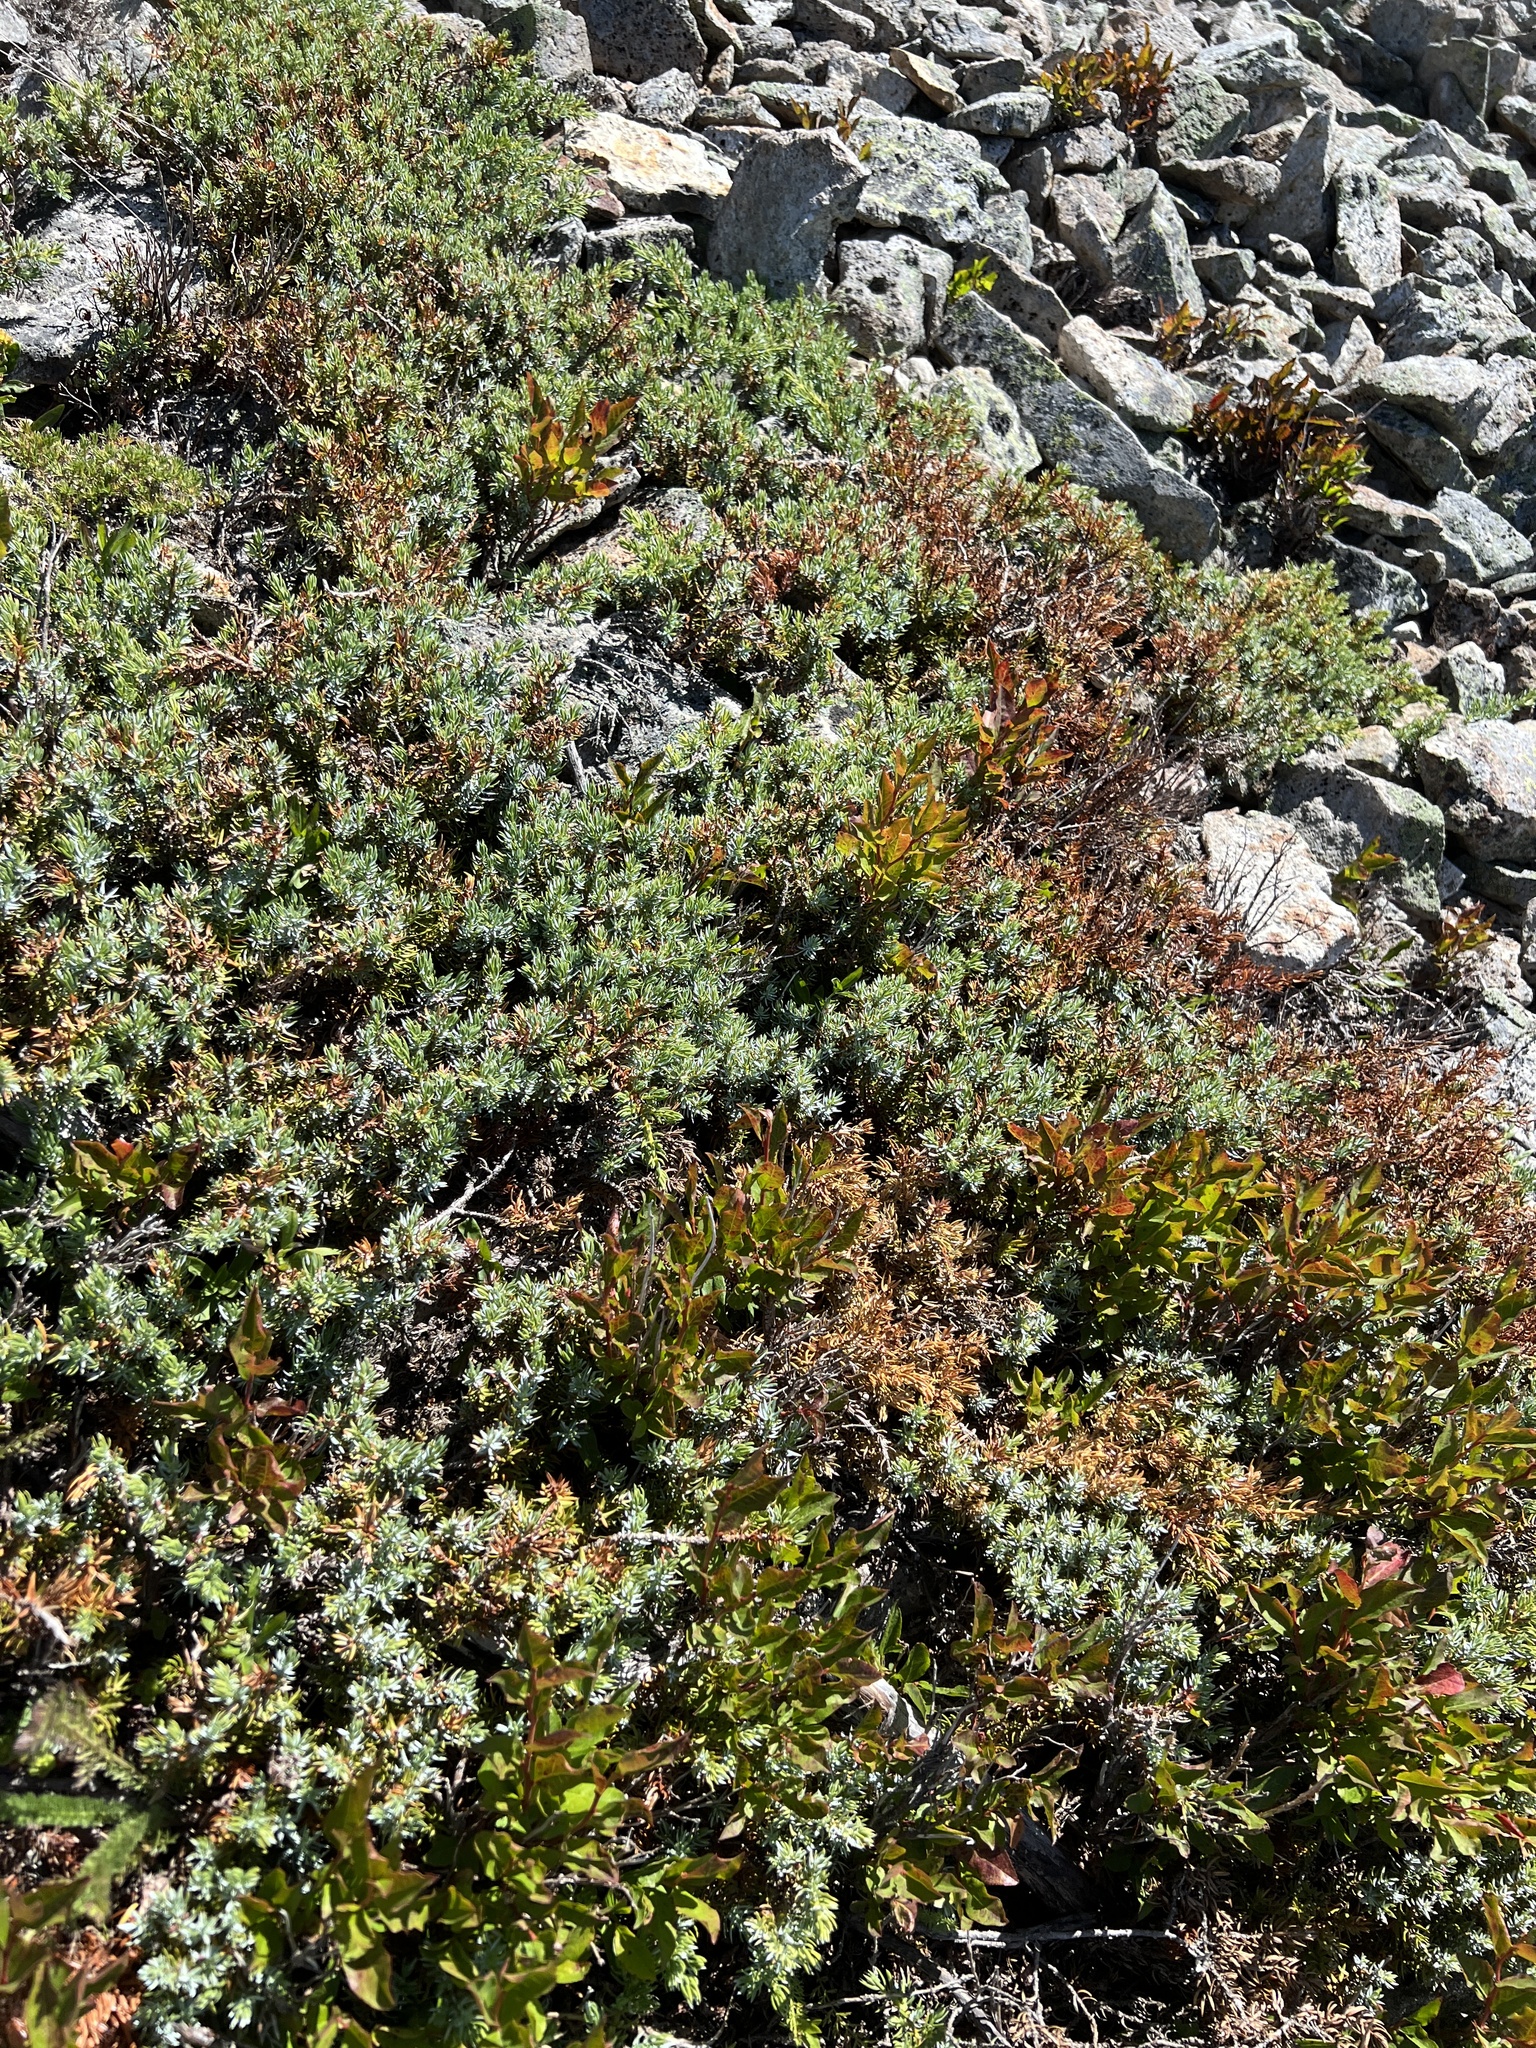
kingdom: Plantae
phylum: Tracheophyta
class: Pinopsida
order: Pinales
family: Cupressaceae
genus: Juniperus
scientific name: Juniperus communis
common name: Common juniper
